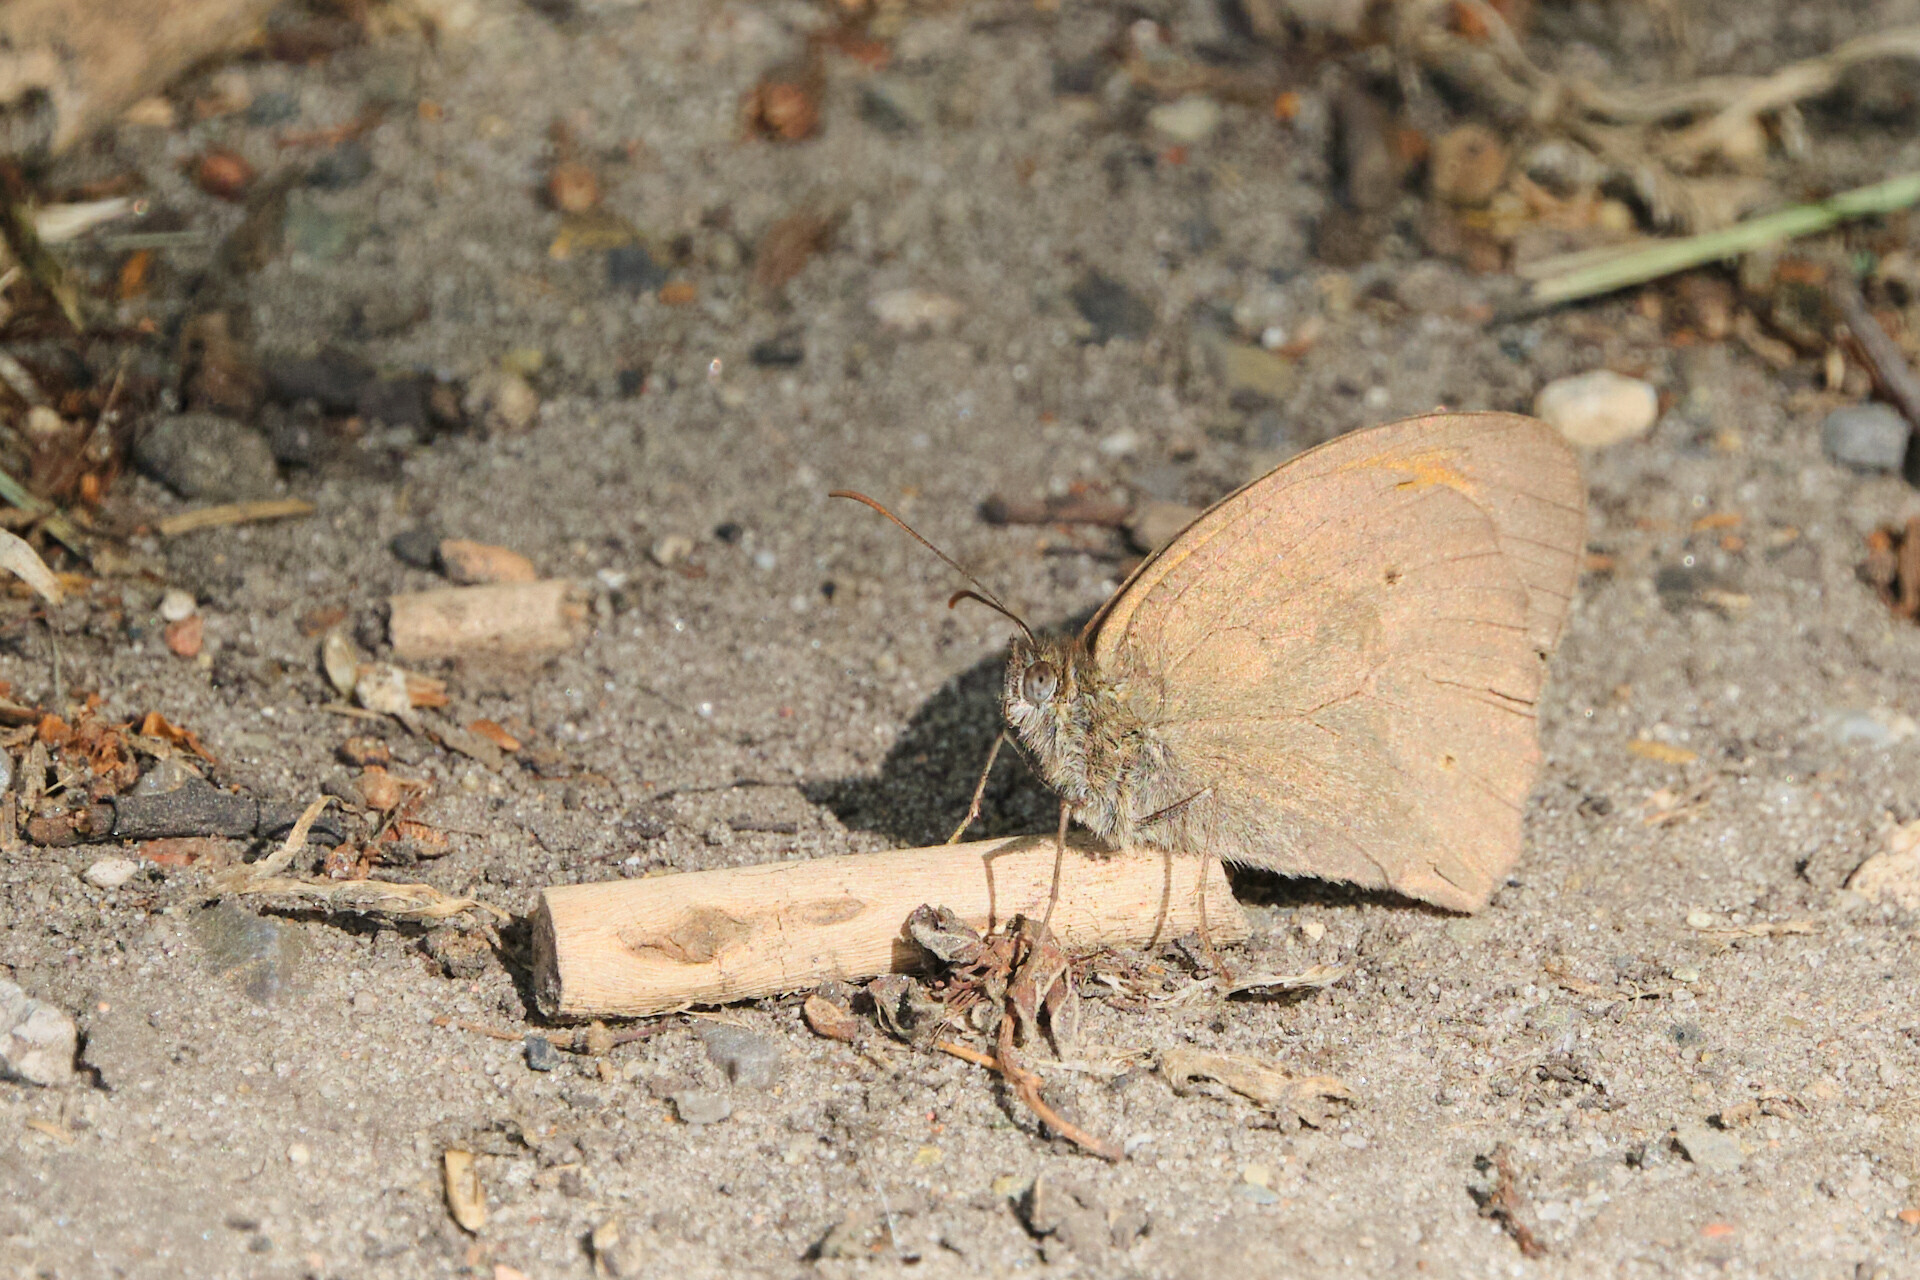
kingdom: Animalia
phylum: Arthropoda
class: Insecta
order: Lepidoptera
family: Nymphalidae
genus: Maniola
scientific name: Maniola jurtina
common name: Meadow brown
